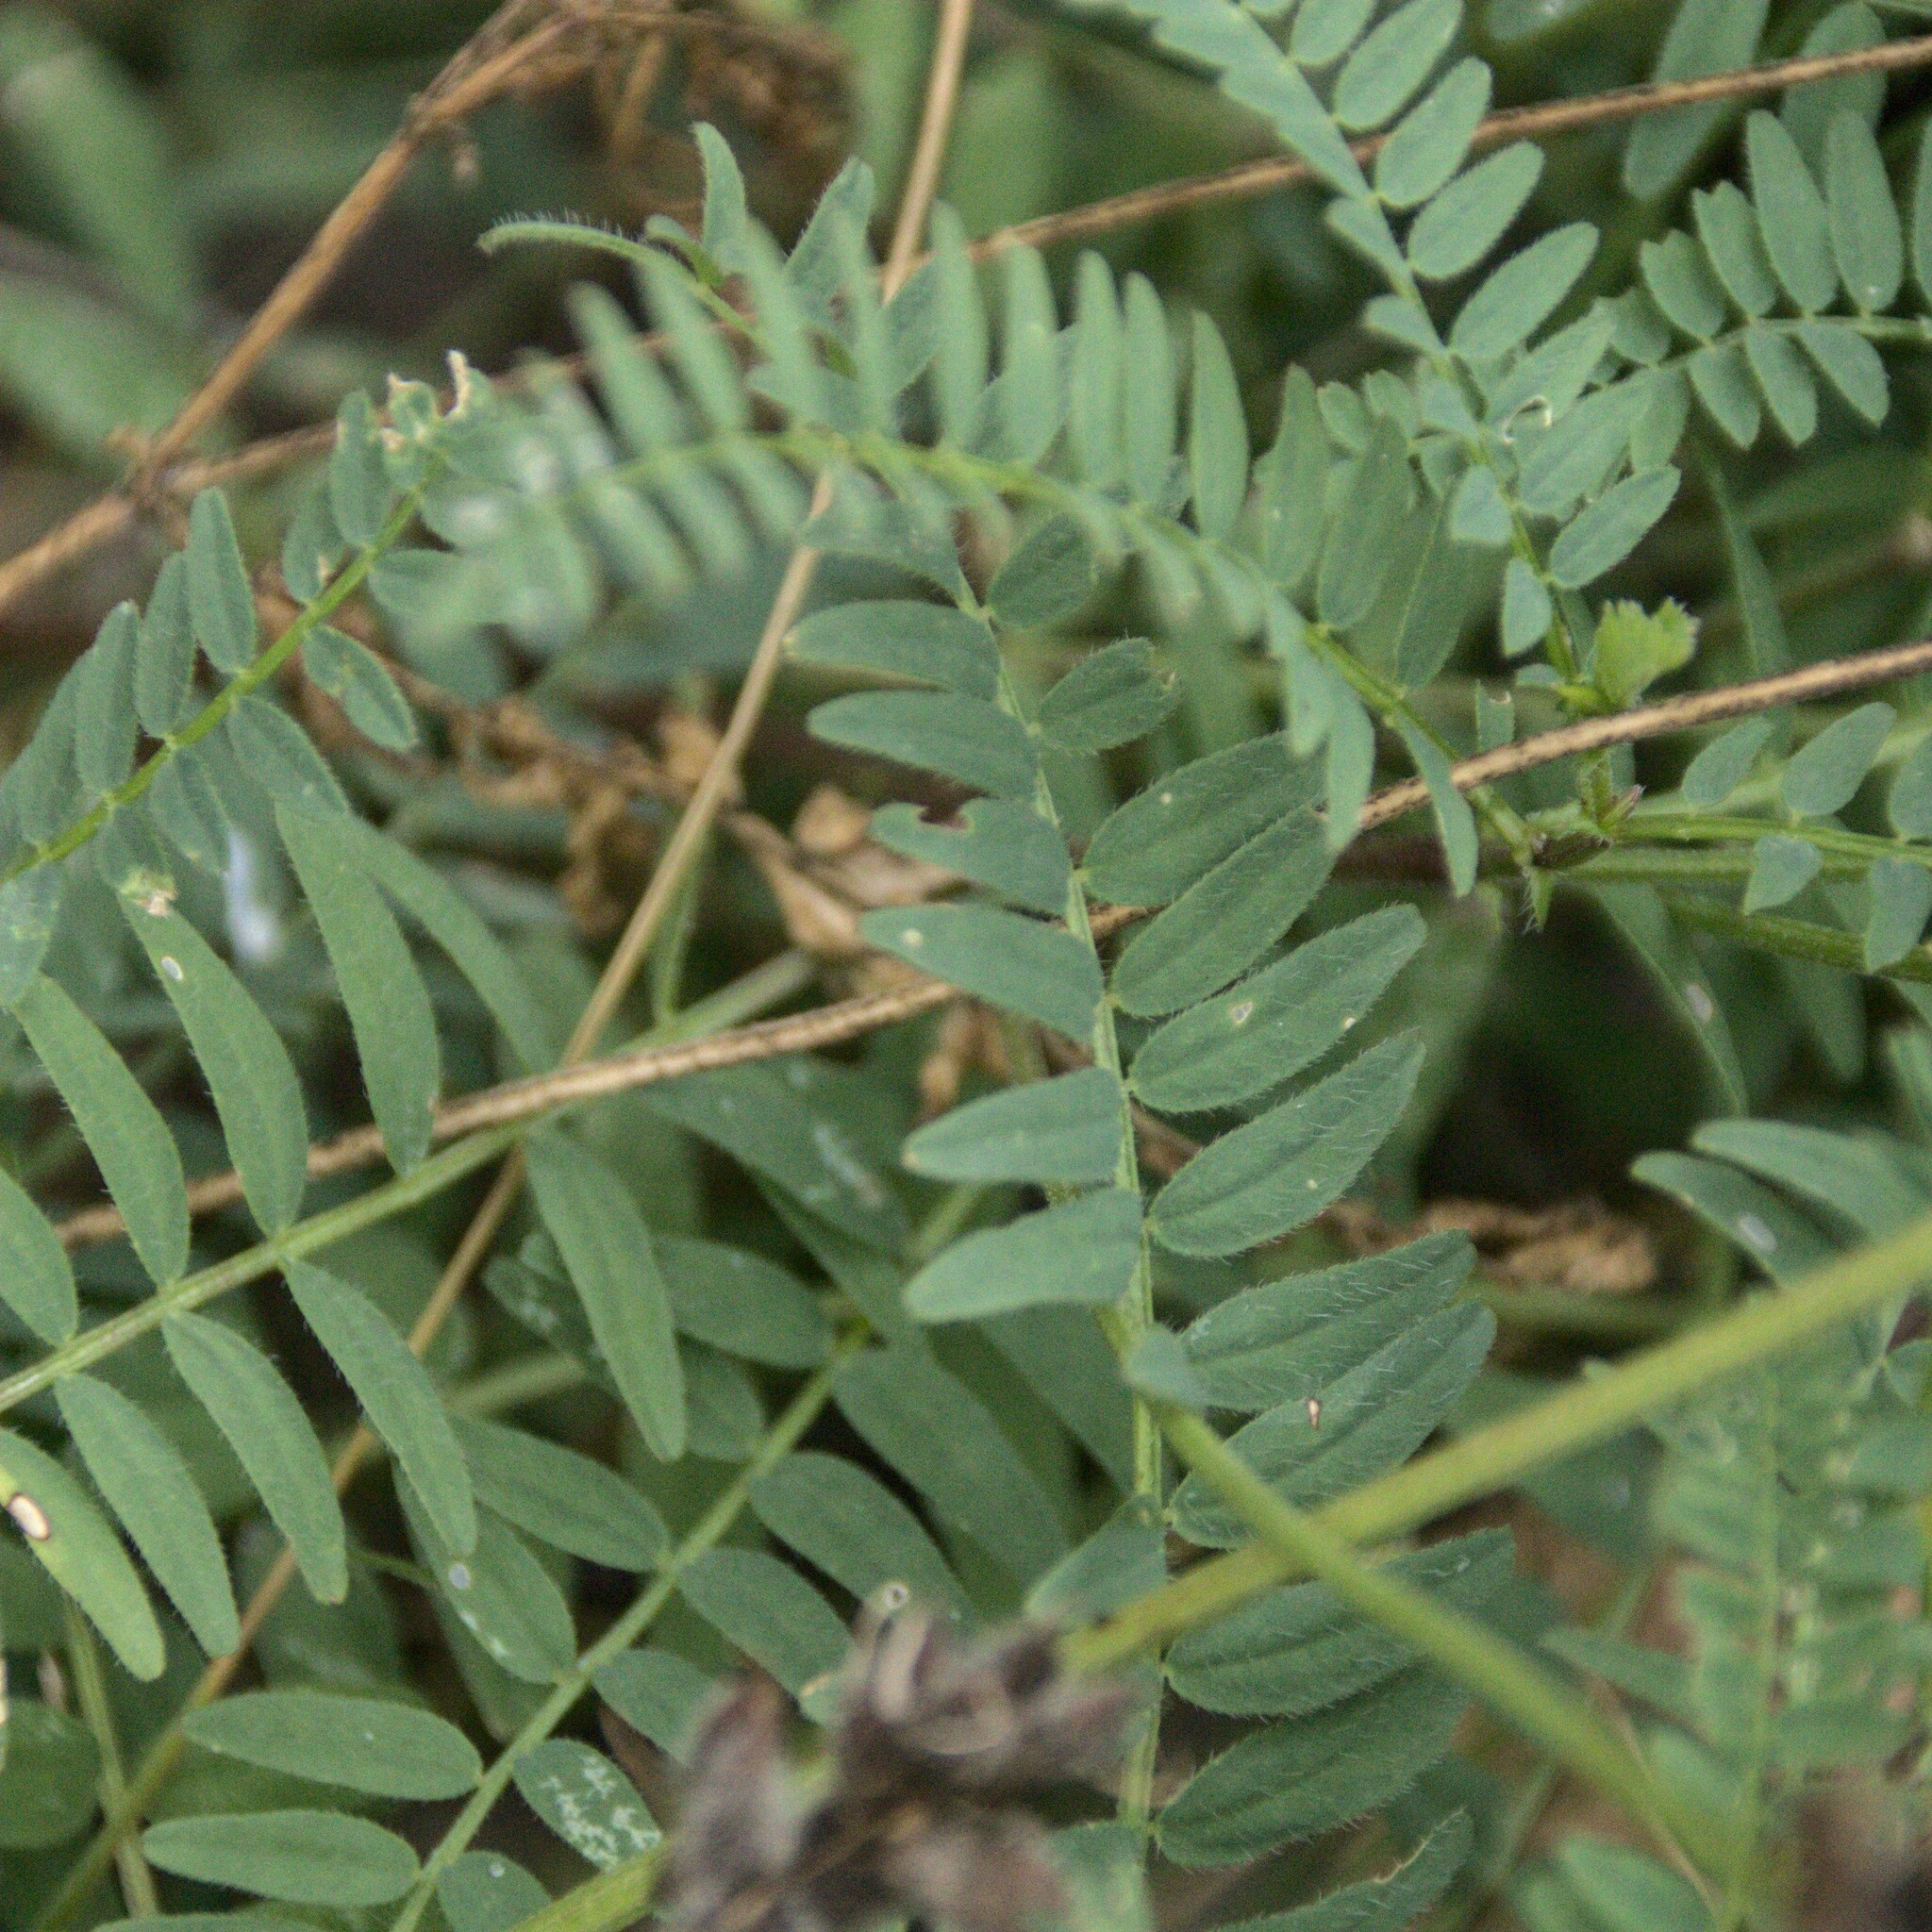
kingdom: Plantae
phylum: Tracheophyta
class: Magnoliopsida
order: Fabales
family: Fabaceae
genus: Astragalus
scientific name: Astragalus cicer
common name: Chick-pea milk-vetch
